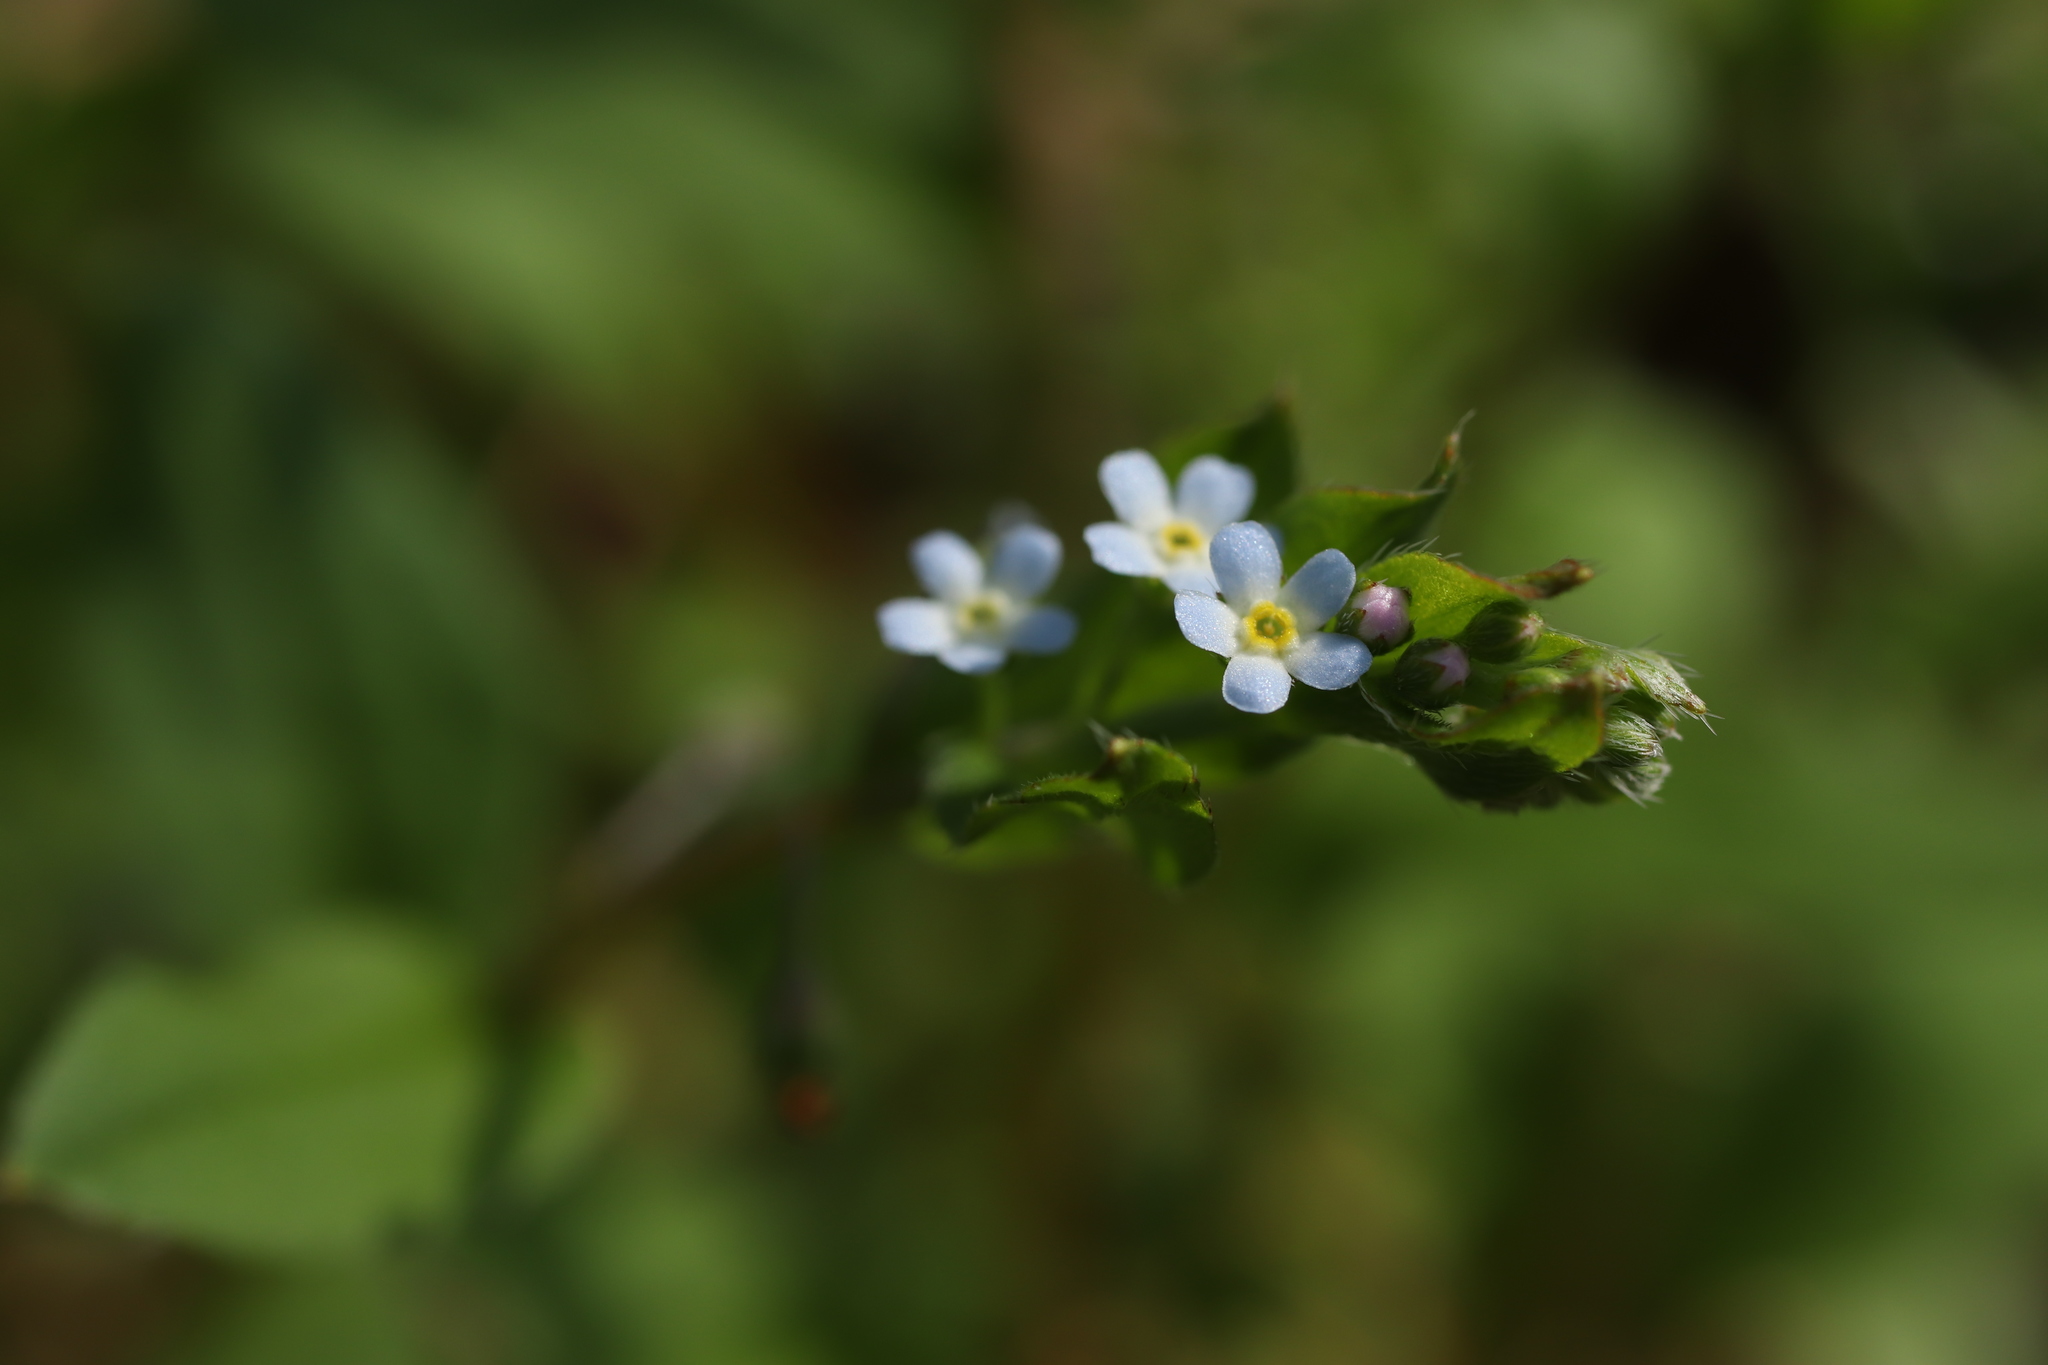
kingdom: Plantae
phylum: Tracheophyta
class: Magnoliopsida
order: Boraginales
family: Boraginaceae
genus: Trigonotis
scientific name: Trigonotis peduncularis
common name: Cucumber herb
